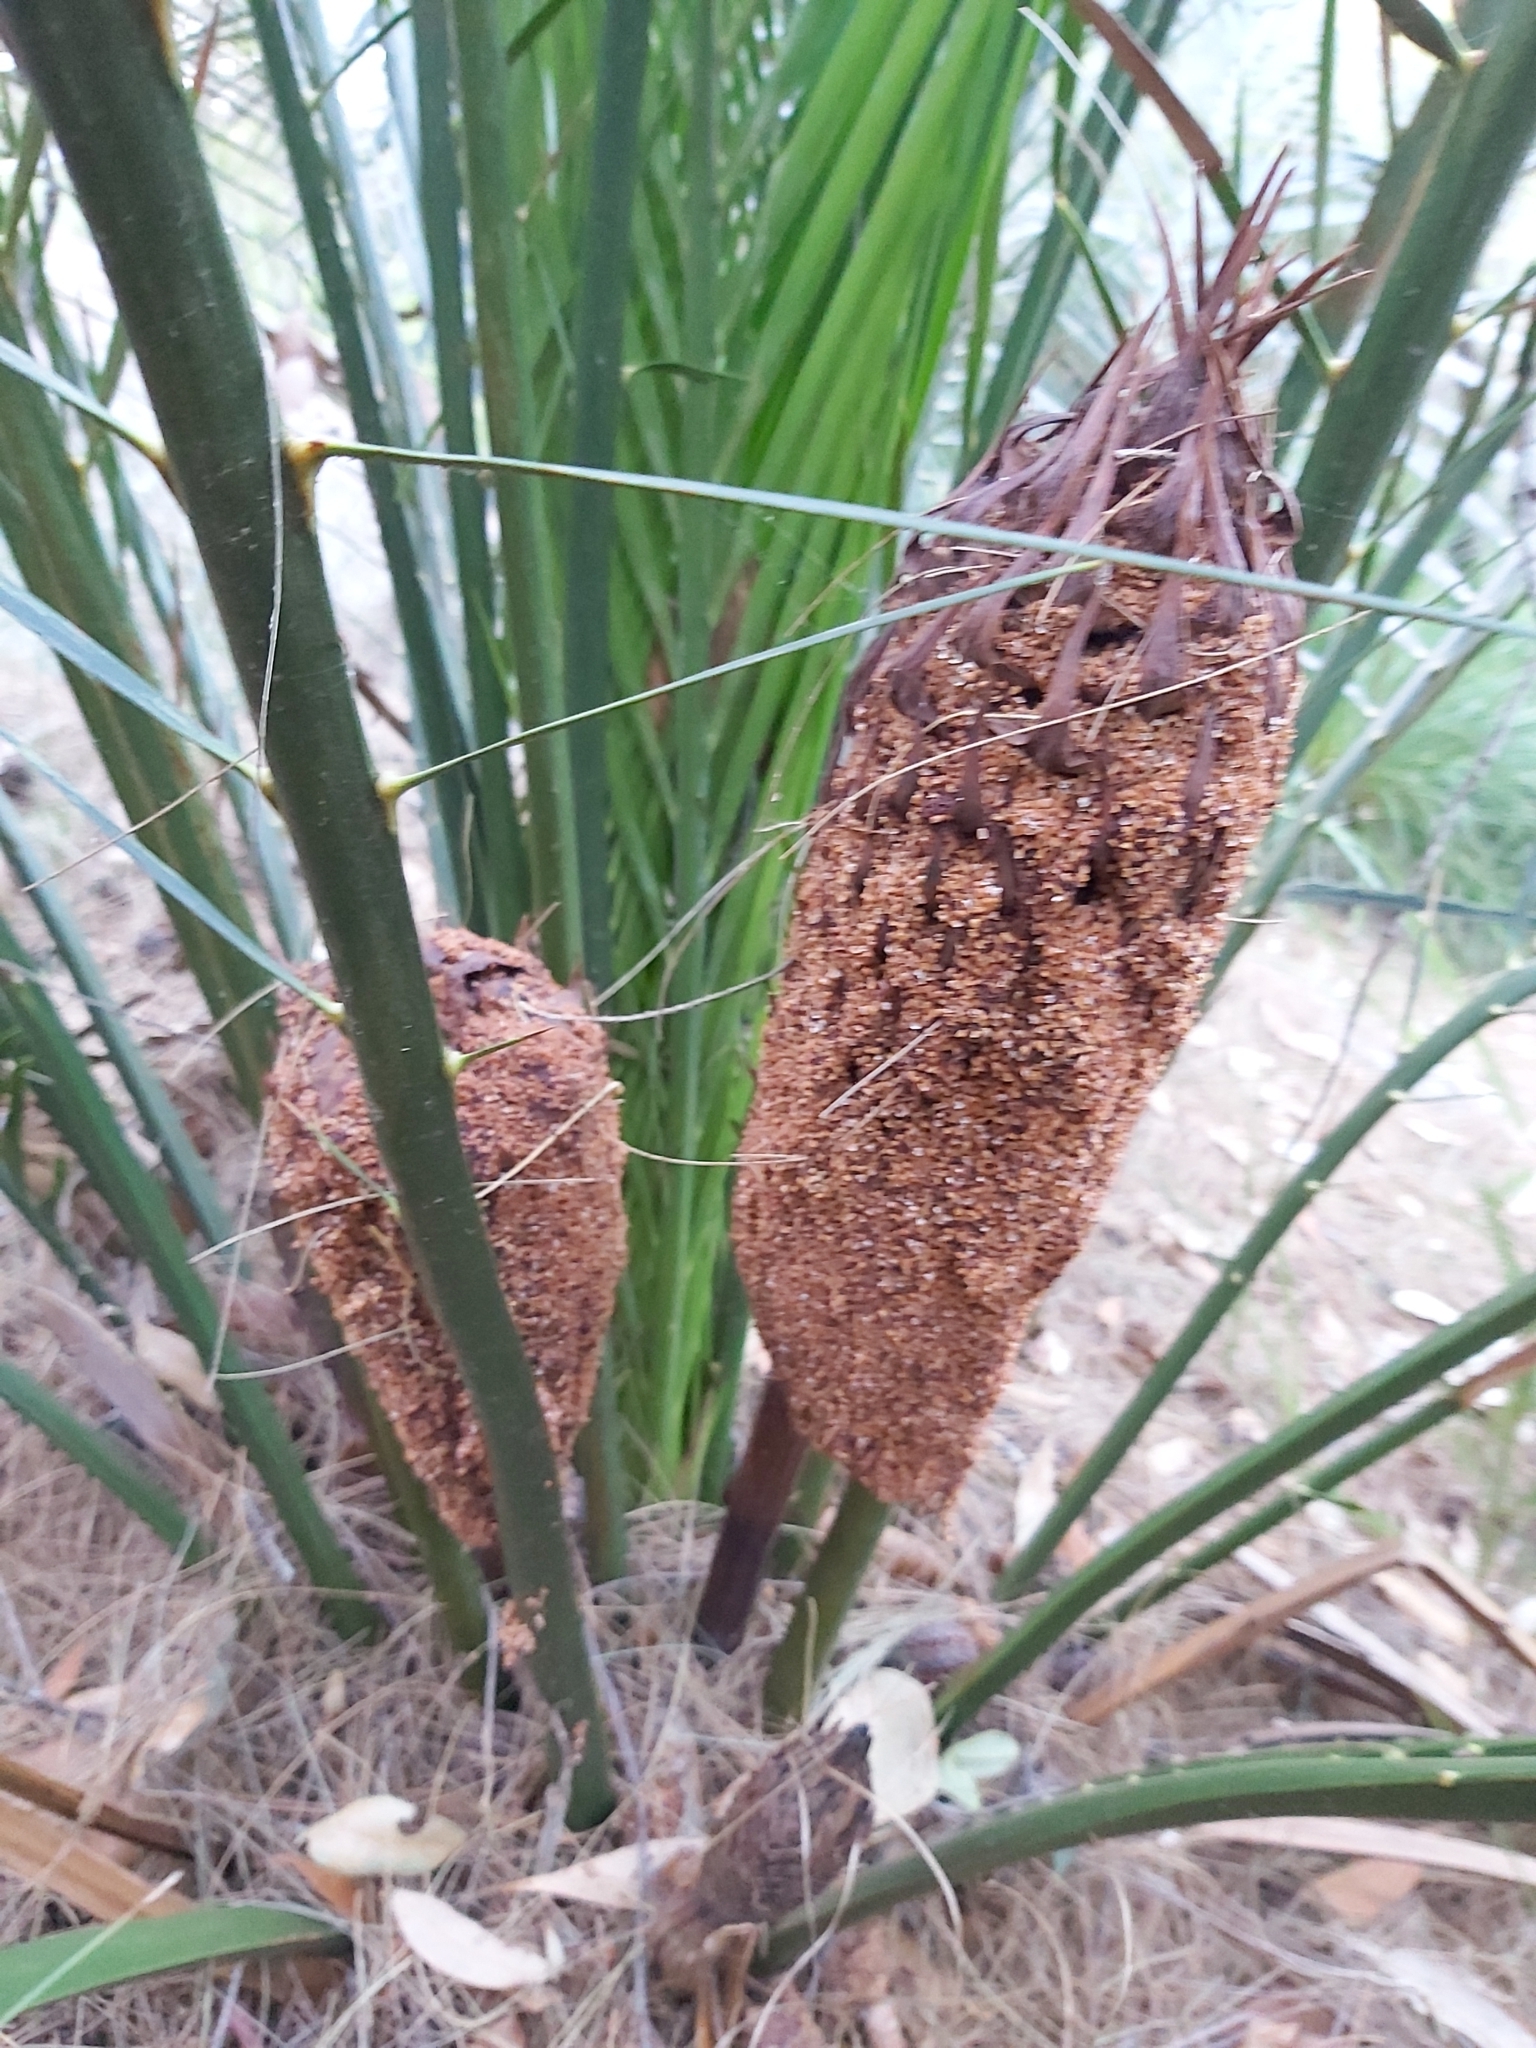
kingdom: Plantae
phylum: Tracheophyta
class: Cycadopsida
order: Cycadales
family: Zamiaceae
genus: Macrozamia
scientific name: Macrozamia communis
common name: Burrawong
